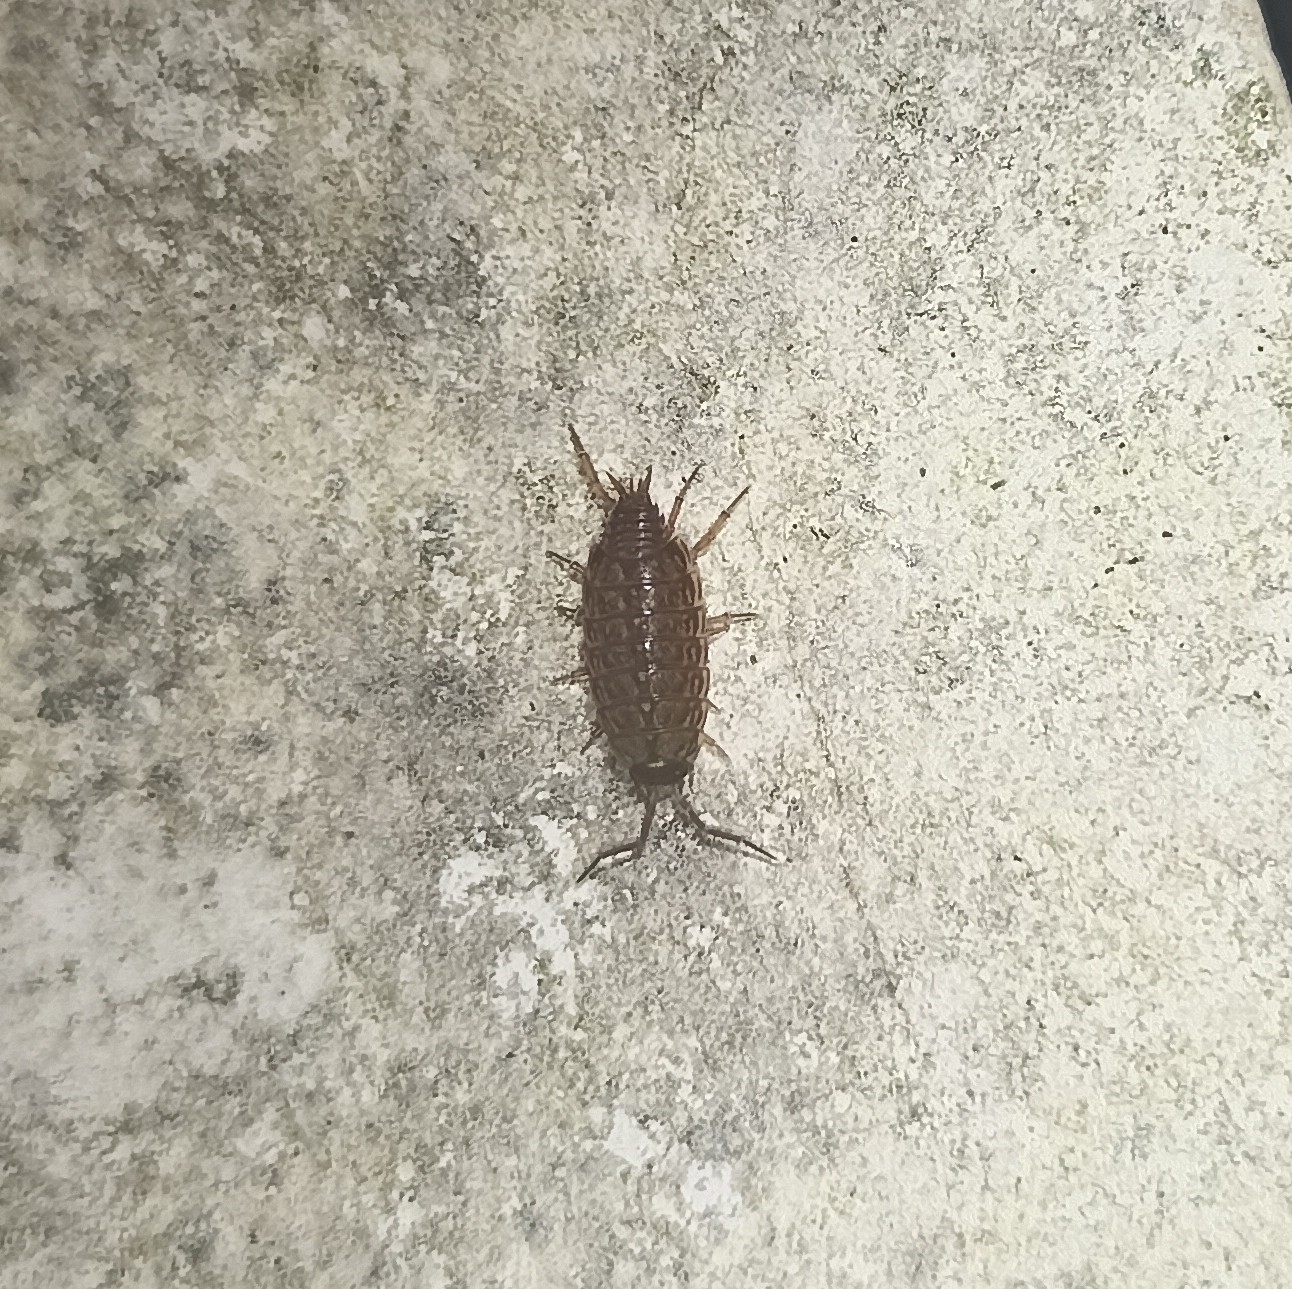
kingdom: Animalia
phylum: Arthropoda
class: Malacostraca
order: Isopoda
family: Philosciidae
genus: Philoscia
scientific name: Philoscia muscorum
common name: Common striped woodlouse
